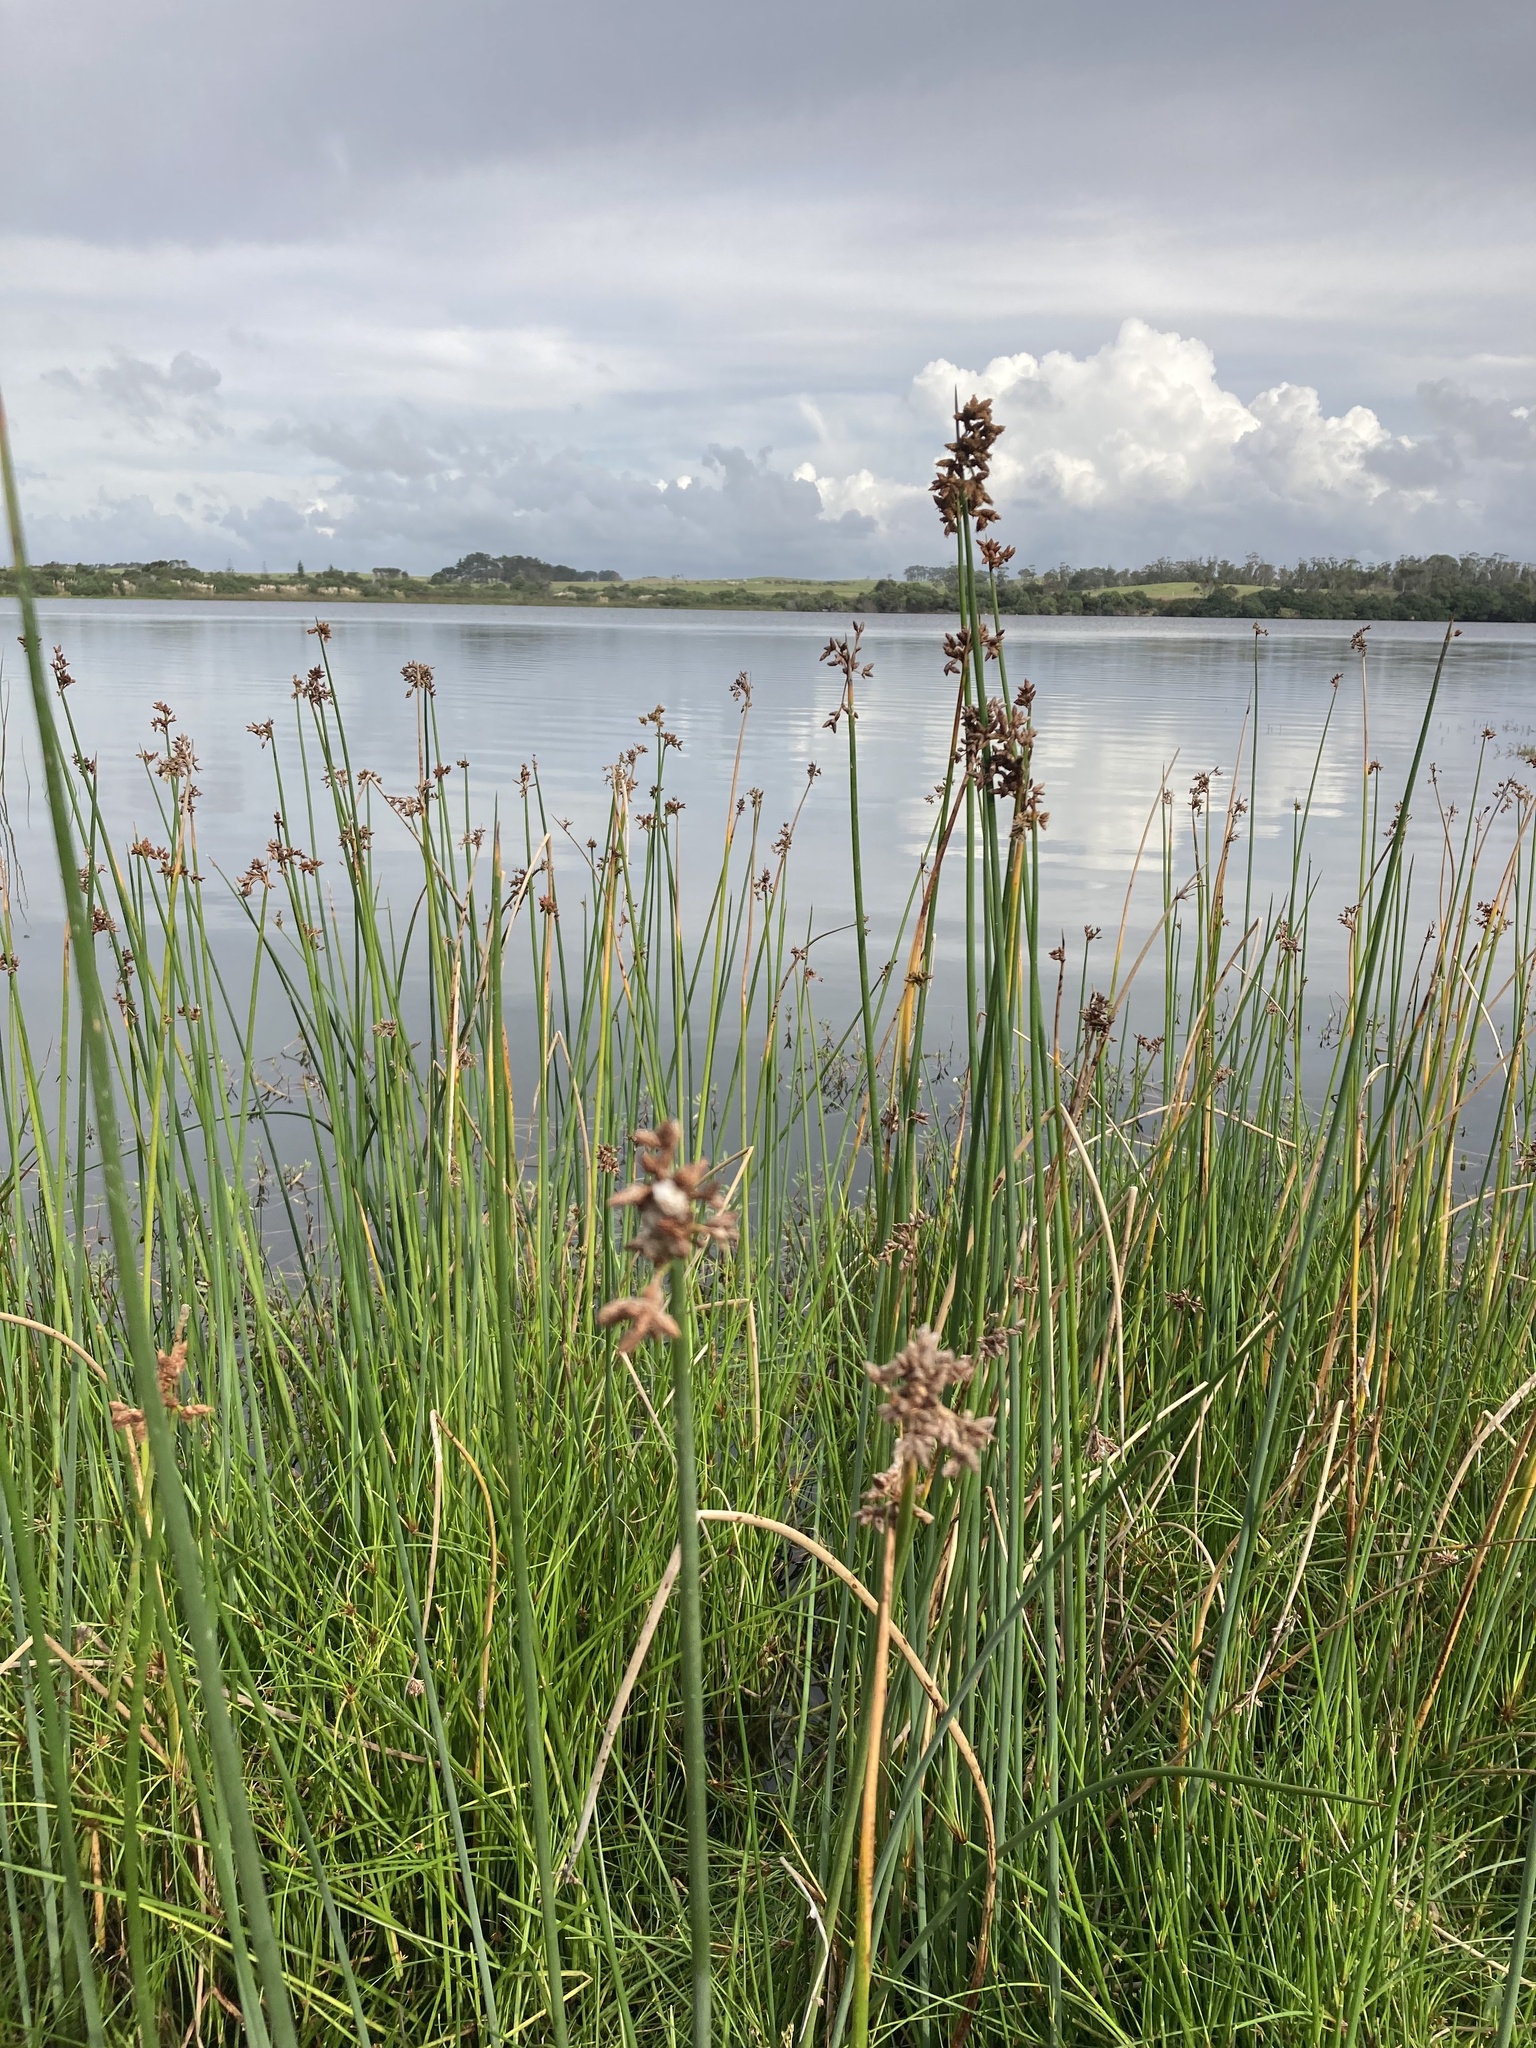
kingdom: Plantae
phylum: Tracheophyta
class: Liliopsida
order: Poales
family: Cyperaceae
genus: Schoenoplectus
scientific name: Schoenoplectus tabernaemontani
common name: Grey club-rush
